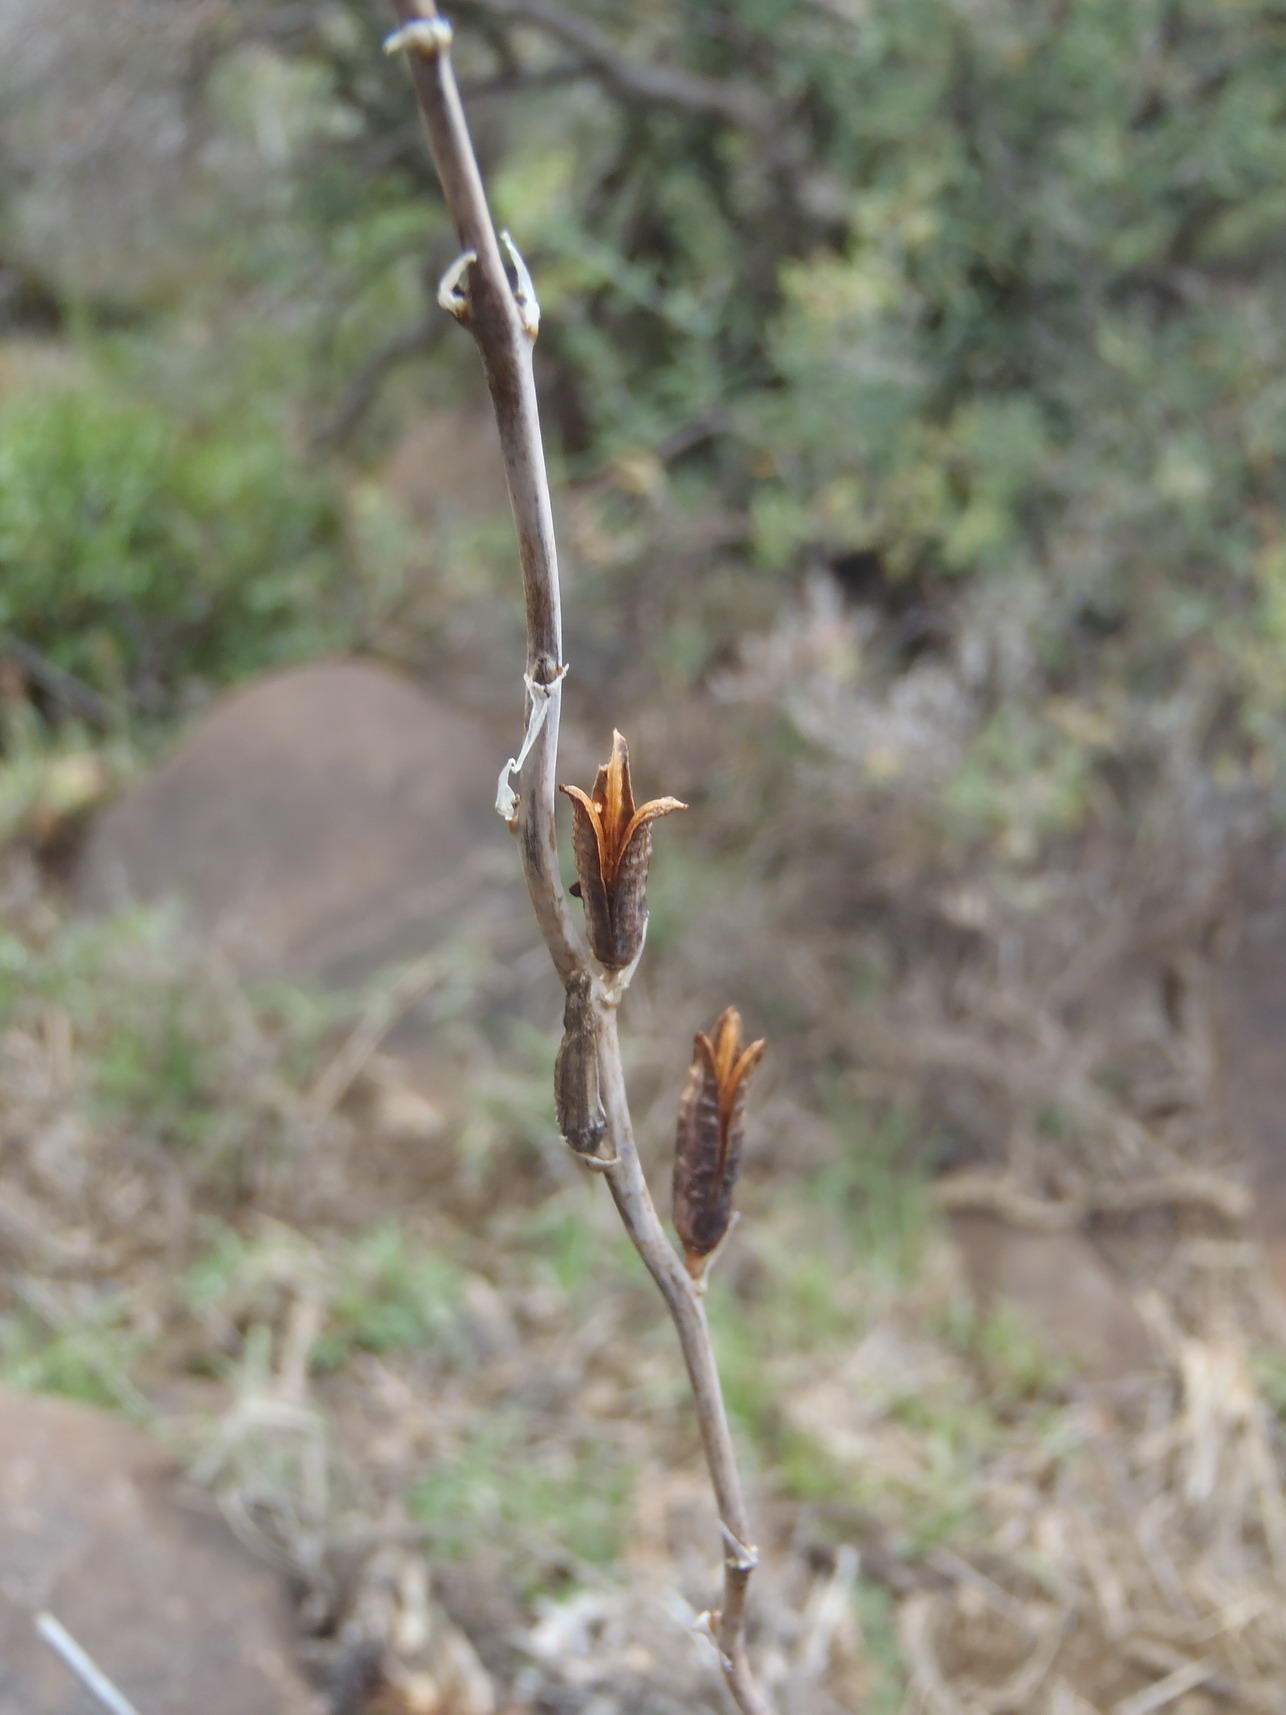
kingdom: Plantae
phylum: Tracheophyta
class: Liliopsida
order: Asparagales
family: Asphodelaceae
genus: Astroloba
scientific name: Astroloba foliolosa
